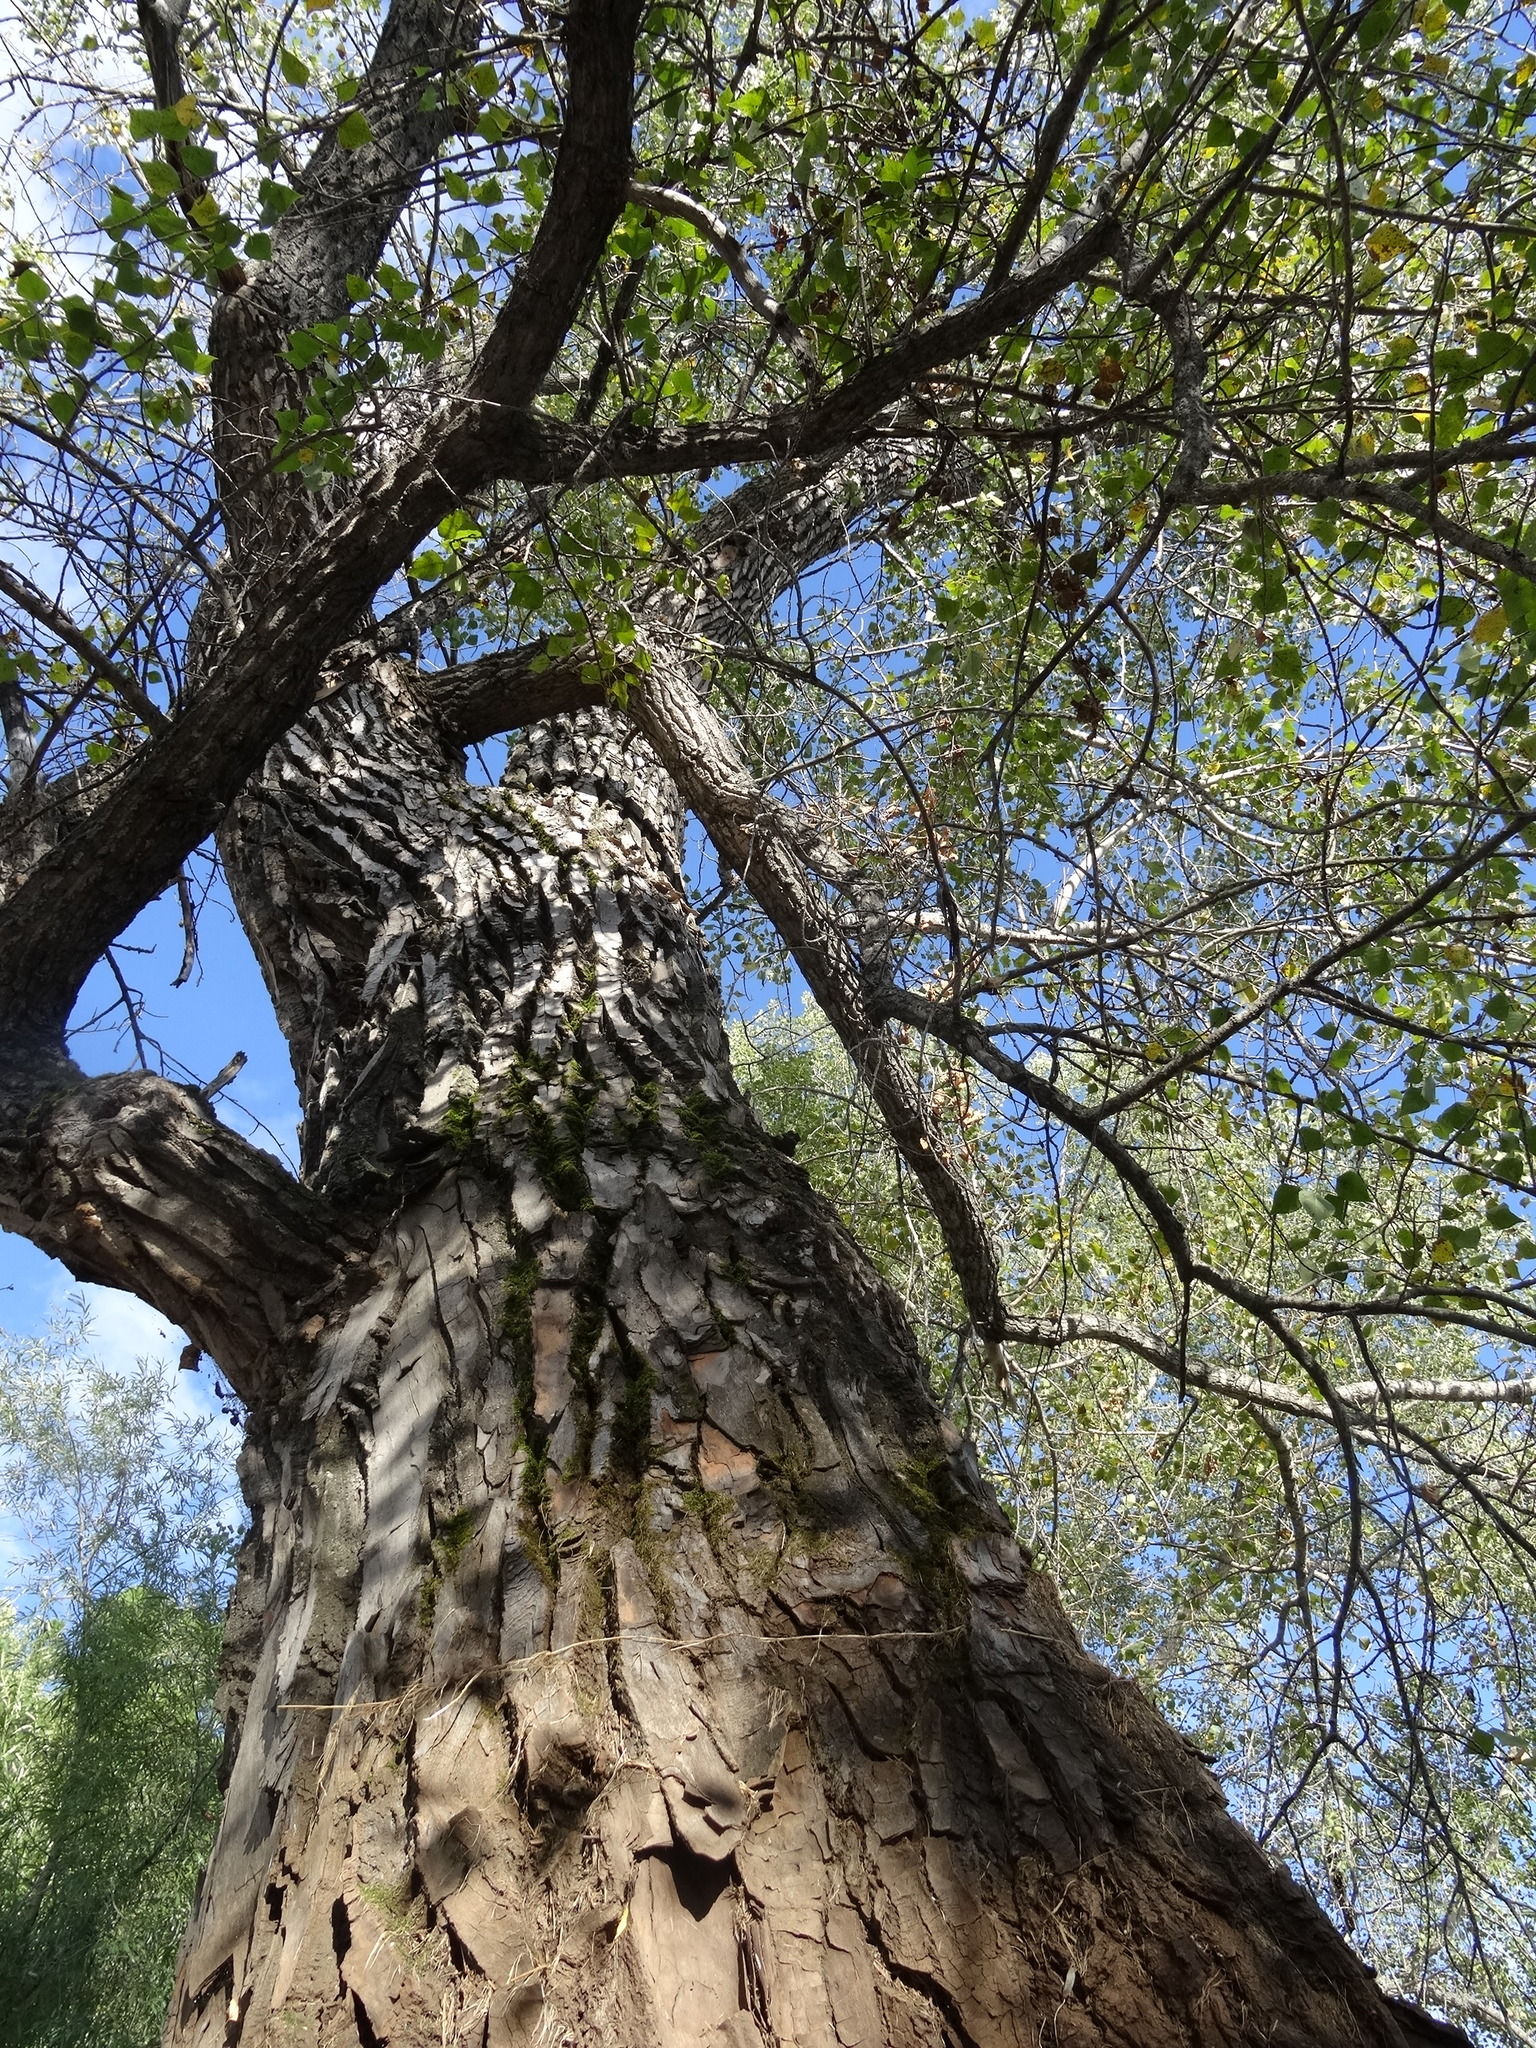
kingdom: Plantae
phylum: Tracheophyta
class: Magnoliopsida
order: Malpighiales
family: Salicaceae
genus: Populus
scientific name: Populus nigra
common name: Black poplar
